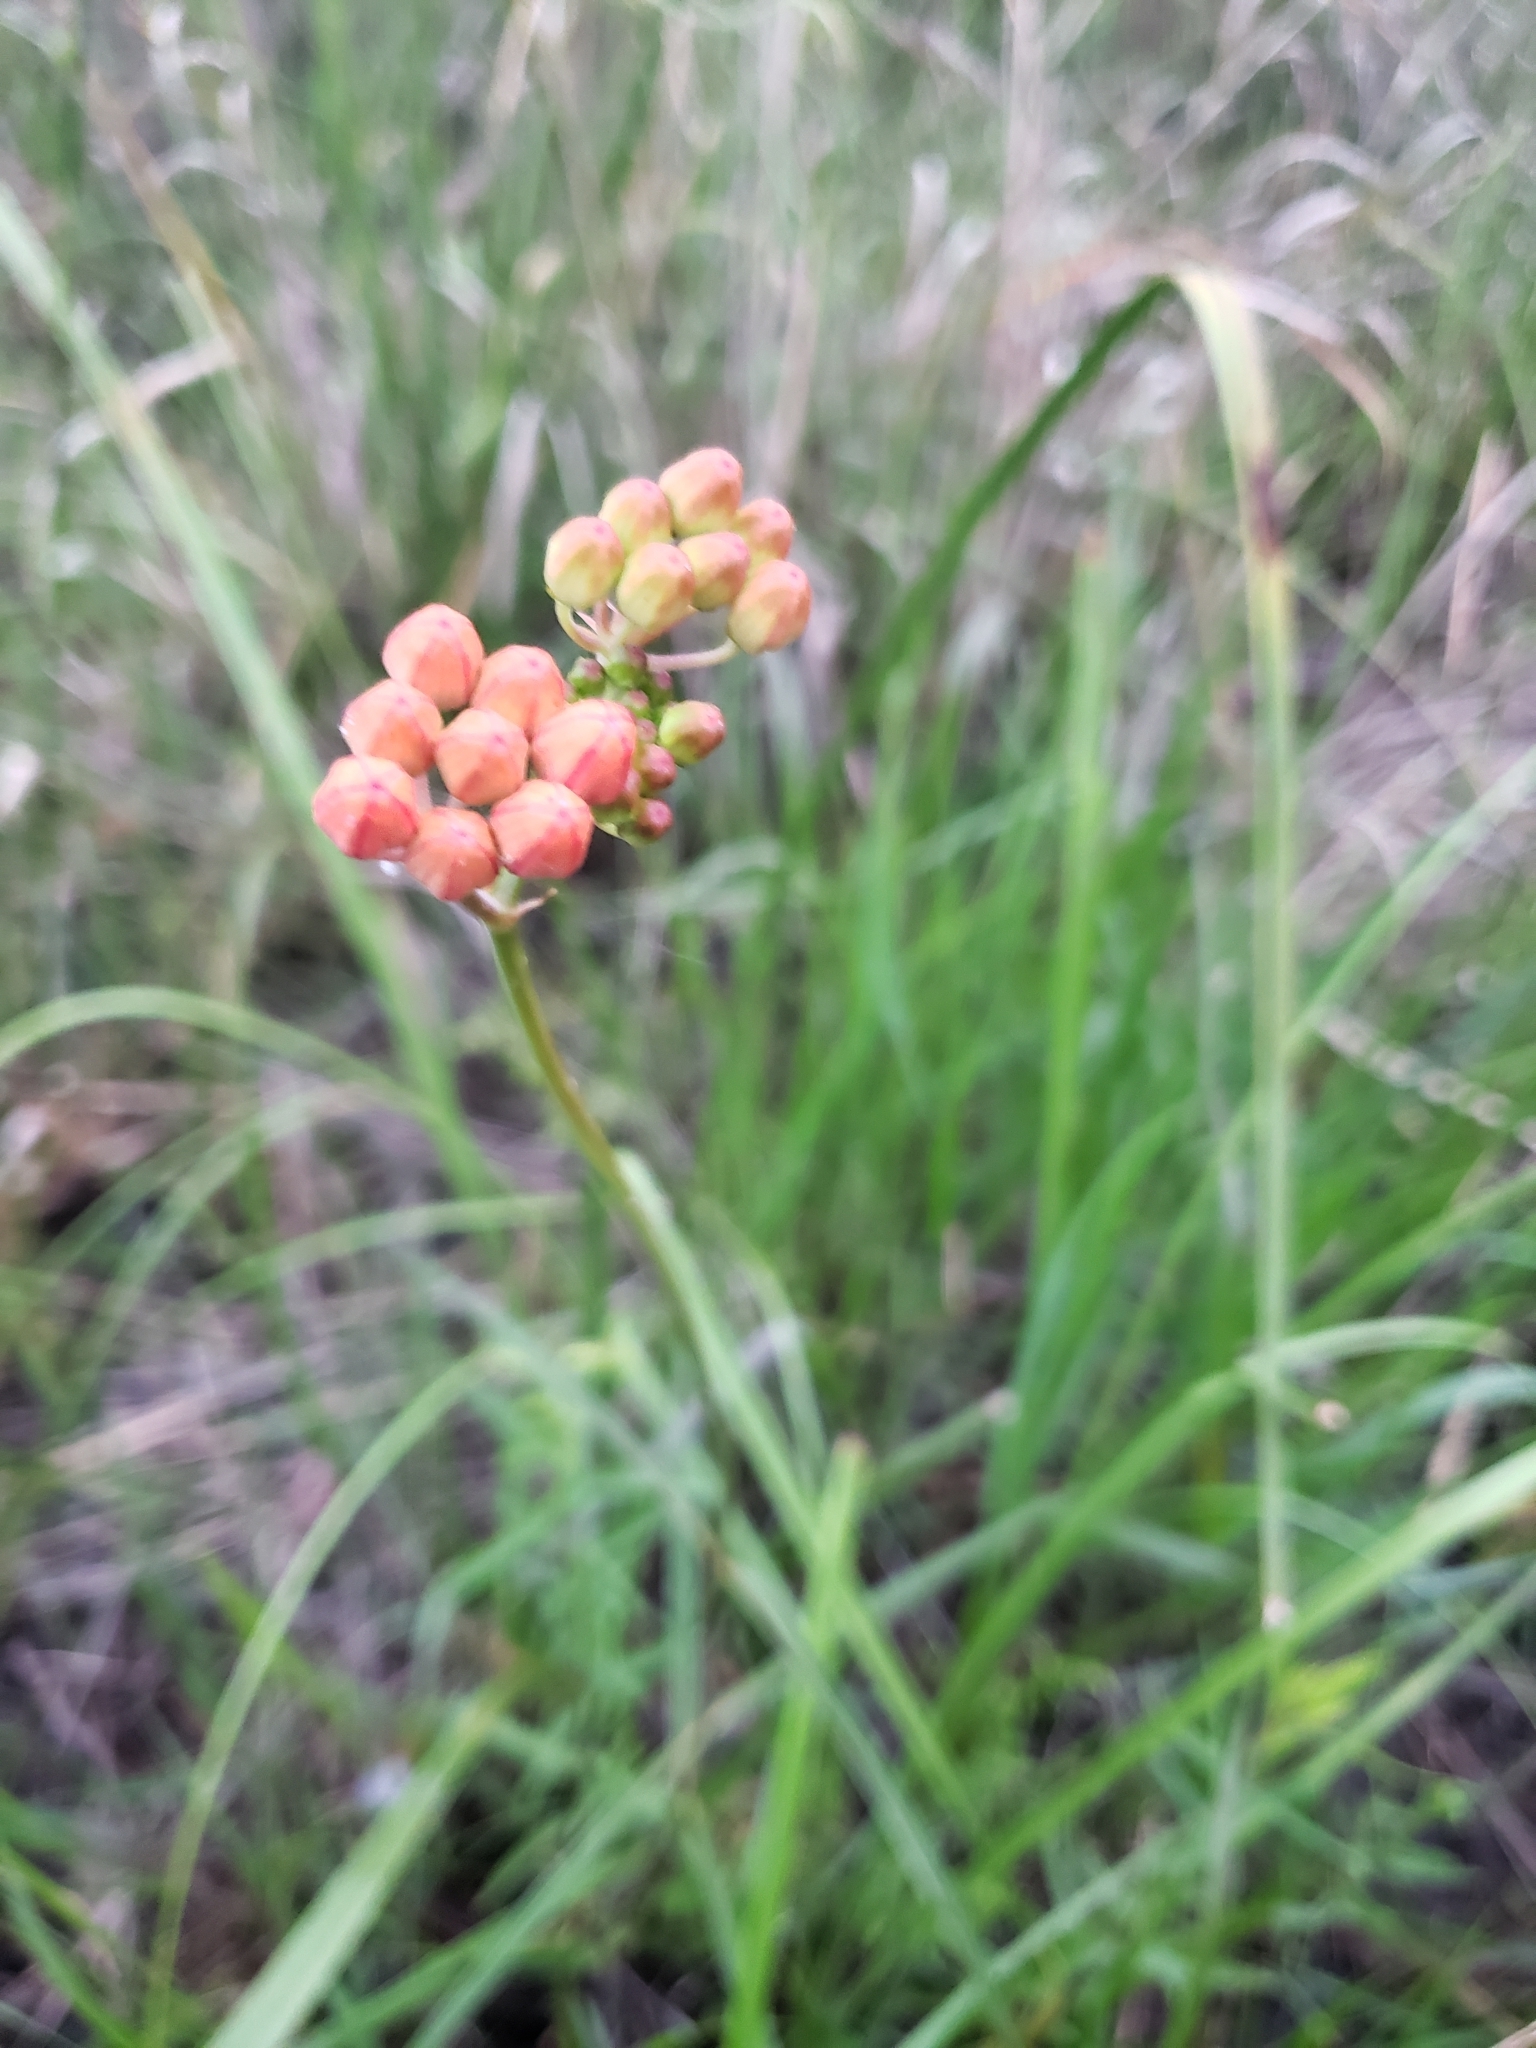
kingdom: Plantae
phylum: Tracheophyta
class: Magnoliopsida
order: Gentianales
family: Apocynaceae
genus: Asclepias
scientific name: Asclepias lanceolata
